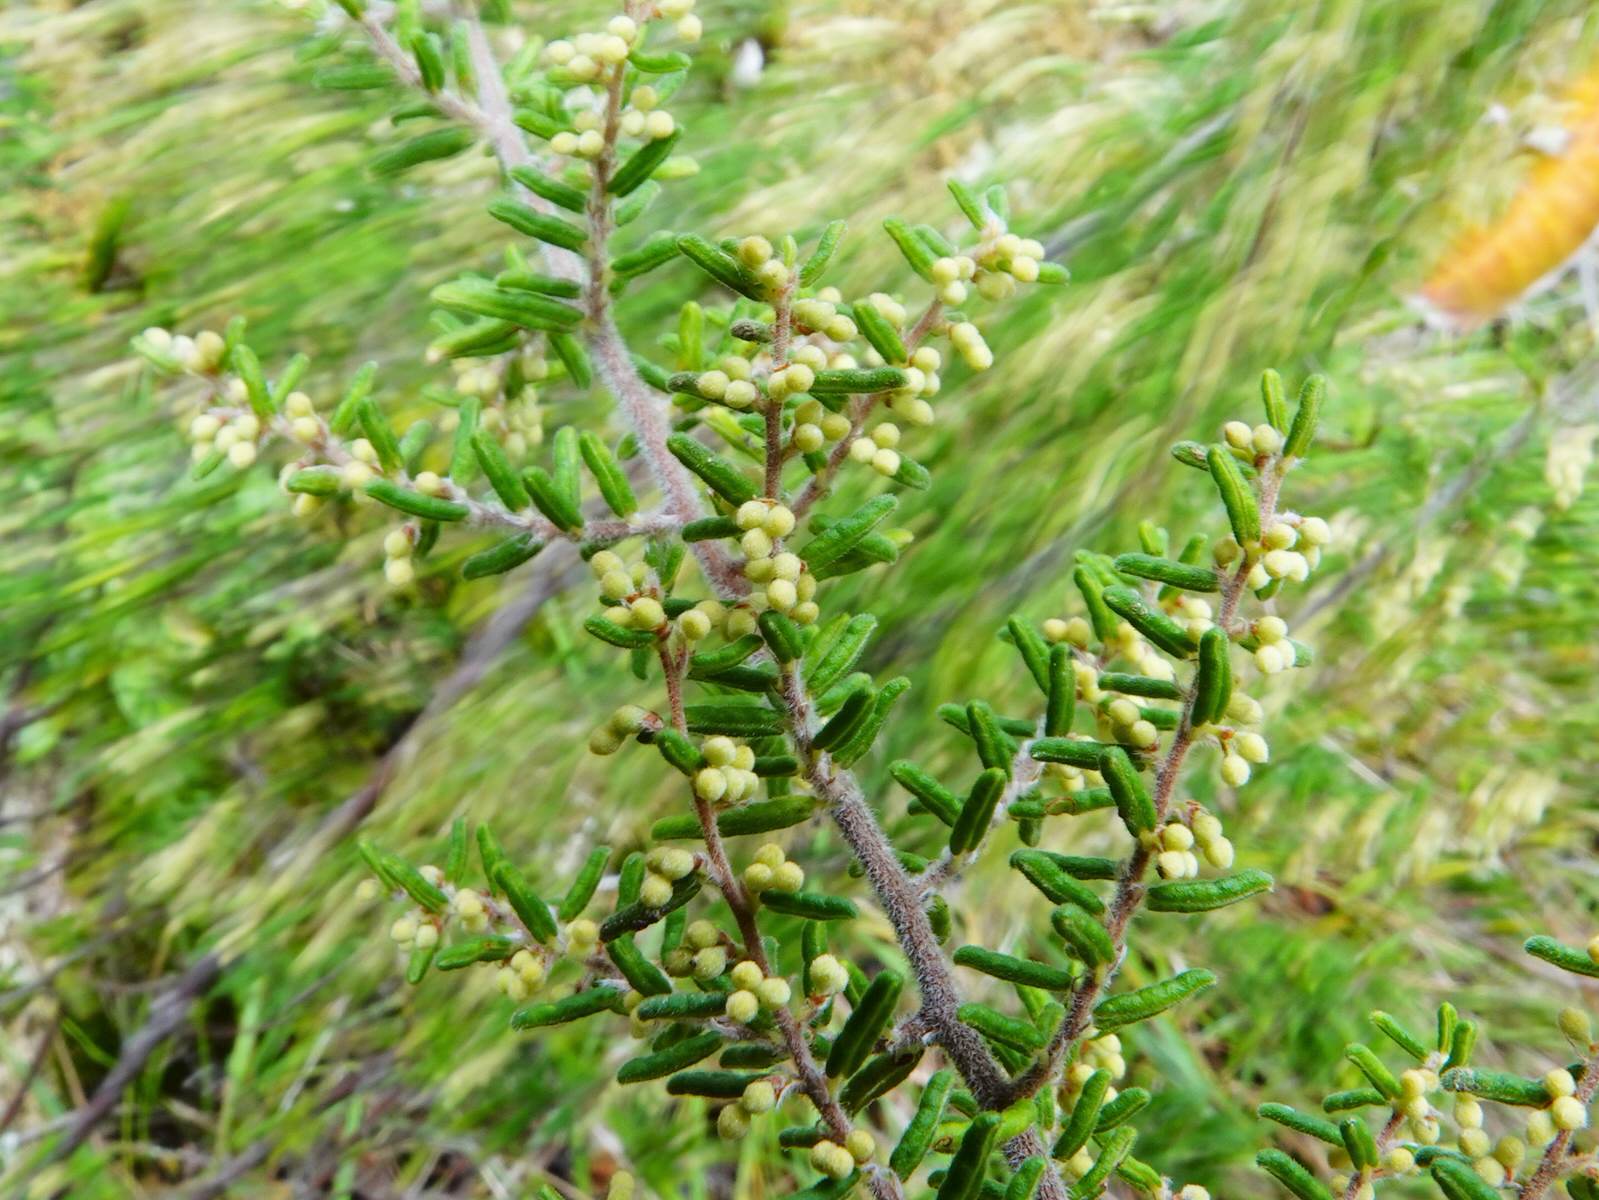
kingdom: Plantae
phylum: Tracheophyta
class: Magnoliopsida
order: Rosales
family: Rhamnaceae
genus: Pomaderris
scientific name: Pomaderris amoena
